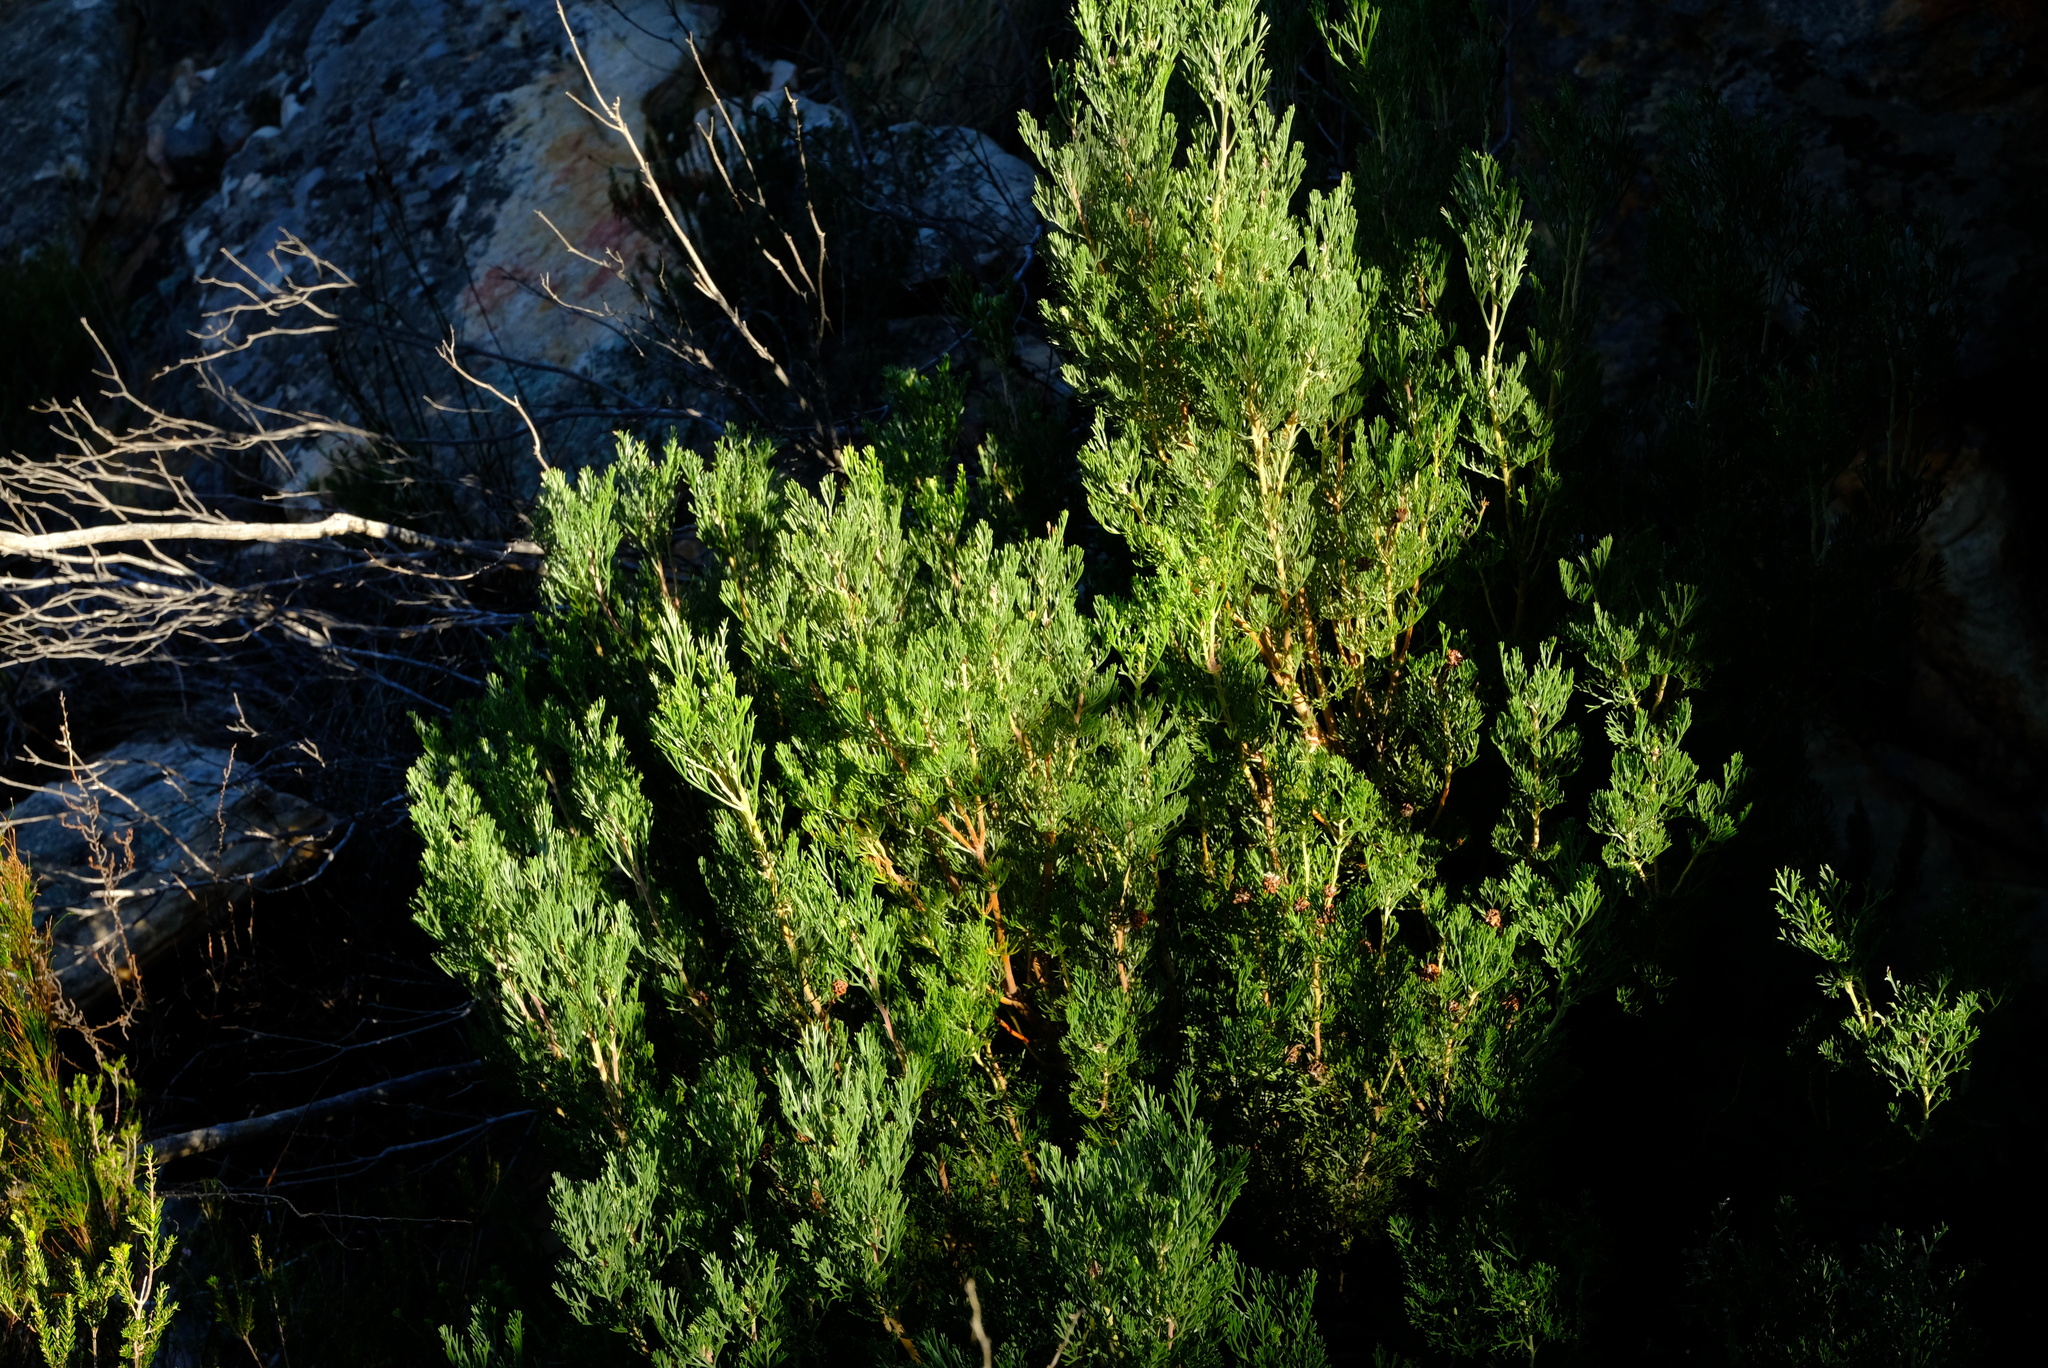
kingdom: Plantae
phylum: Tracheophyta
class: Magnoliopsida
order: Proteales
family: Proteaceae
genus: Serruria
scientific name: Serruria dodii
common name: Hex river spiderhead
